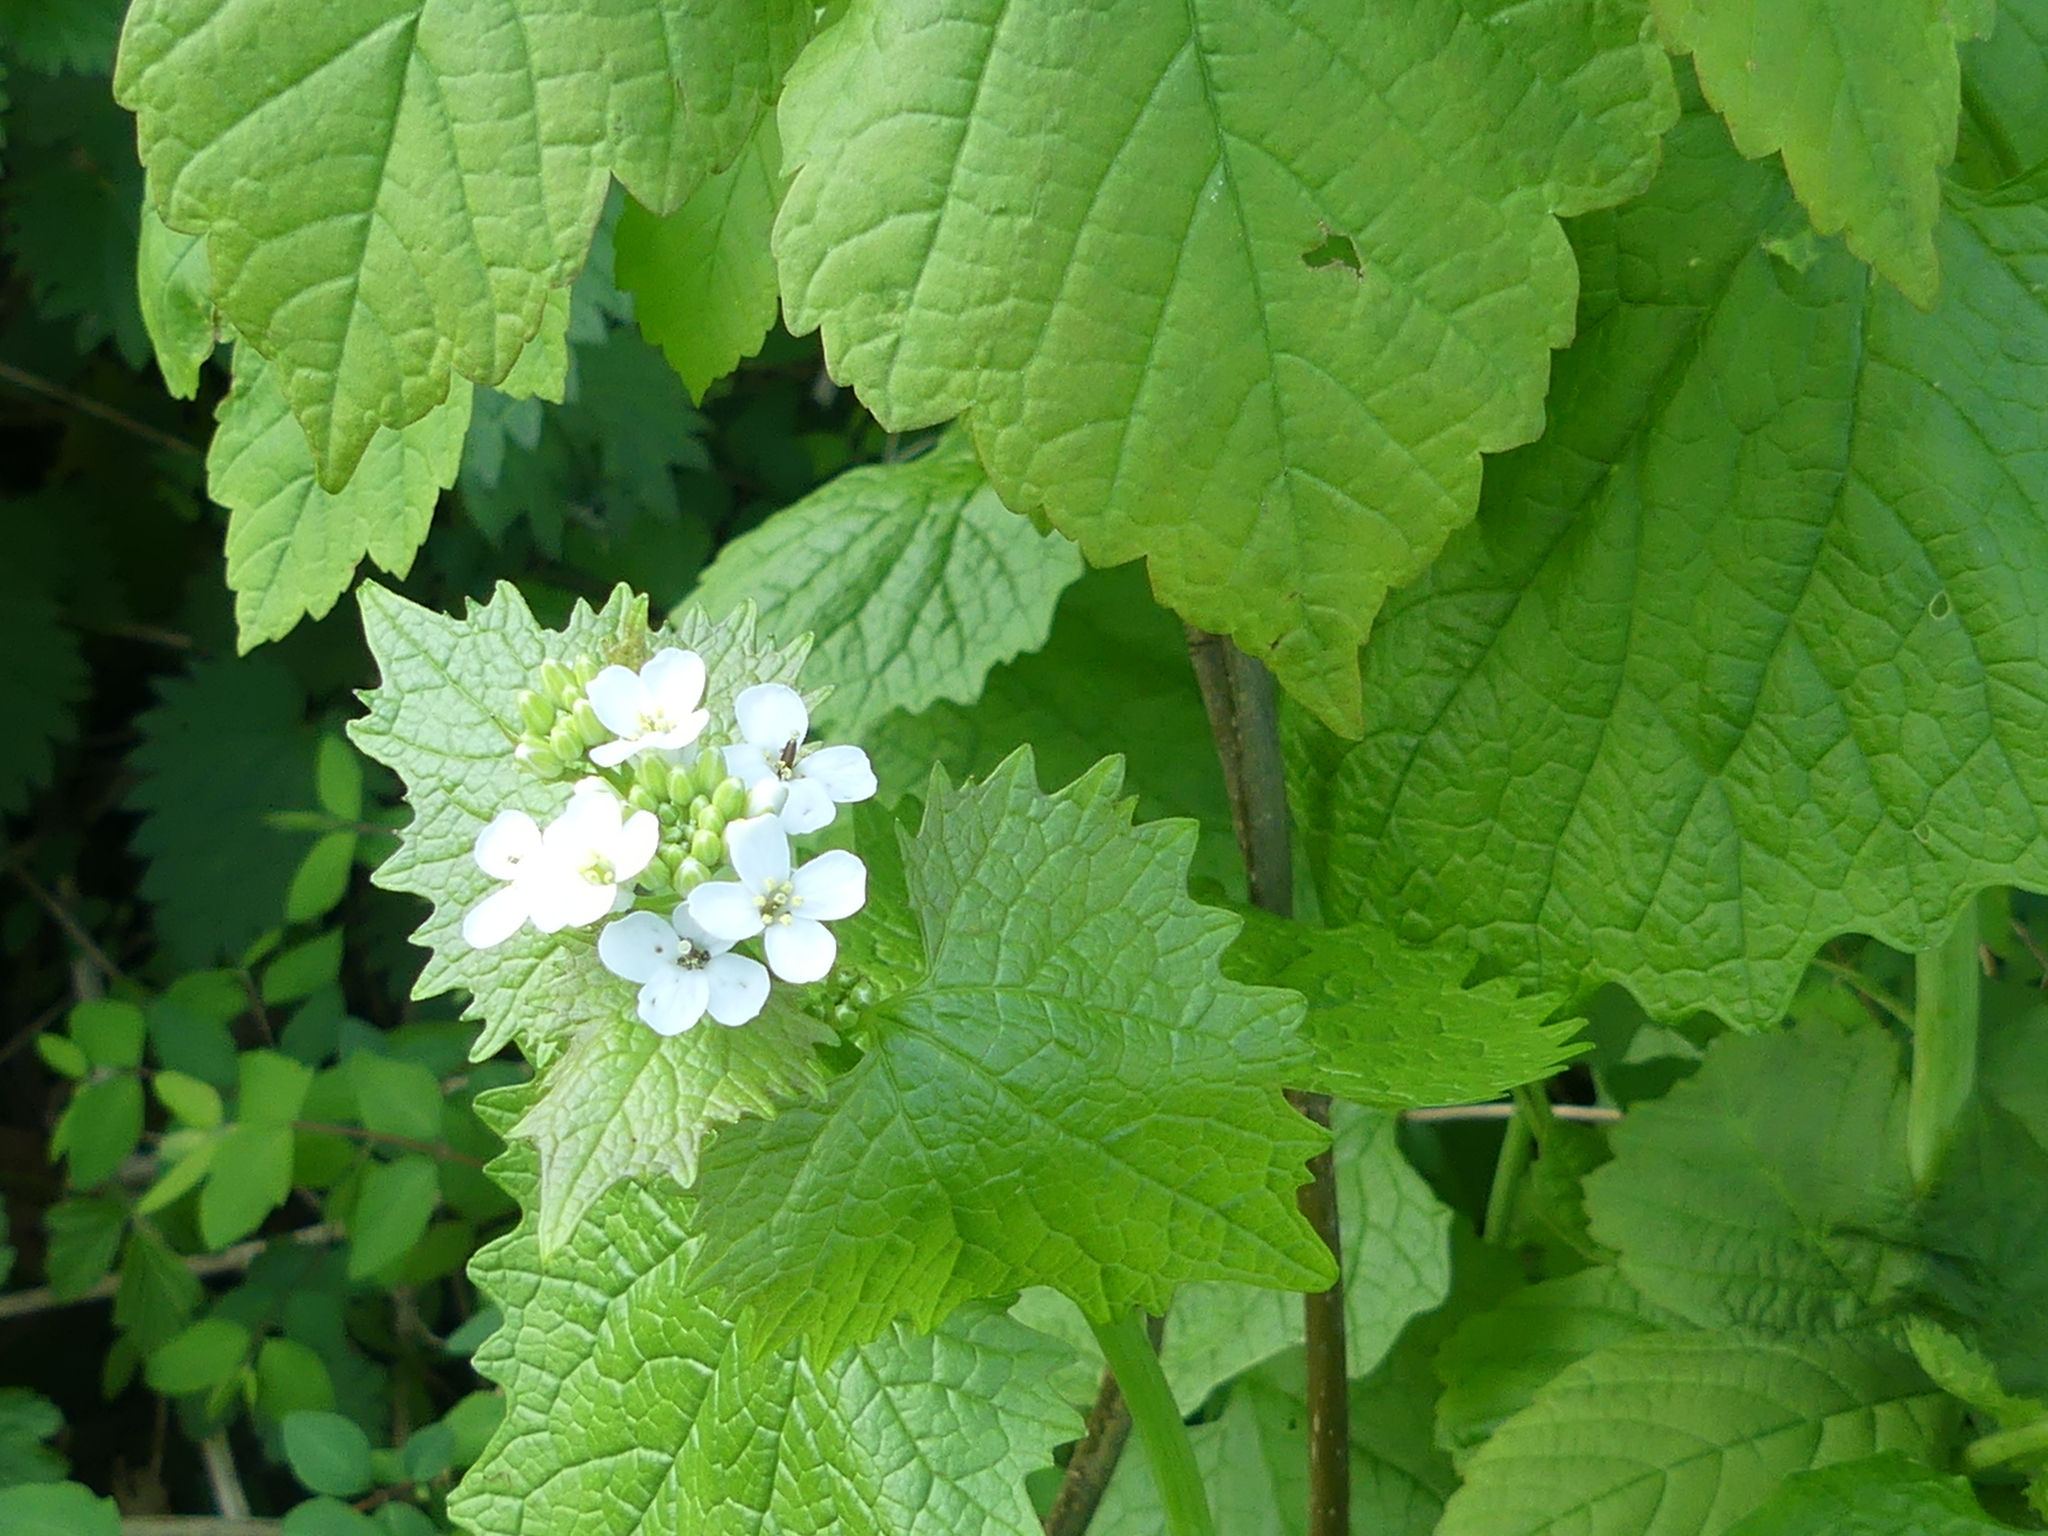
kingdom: Plantae
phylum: Tracheophyta
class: Magnoliopsida
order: Brassicales
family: Brassicaceae
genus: Alliaria
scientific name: Alliaria petiolata
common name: Garlic mustard
